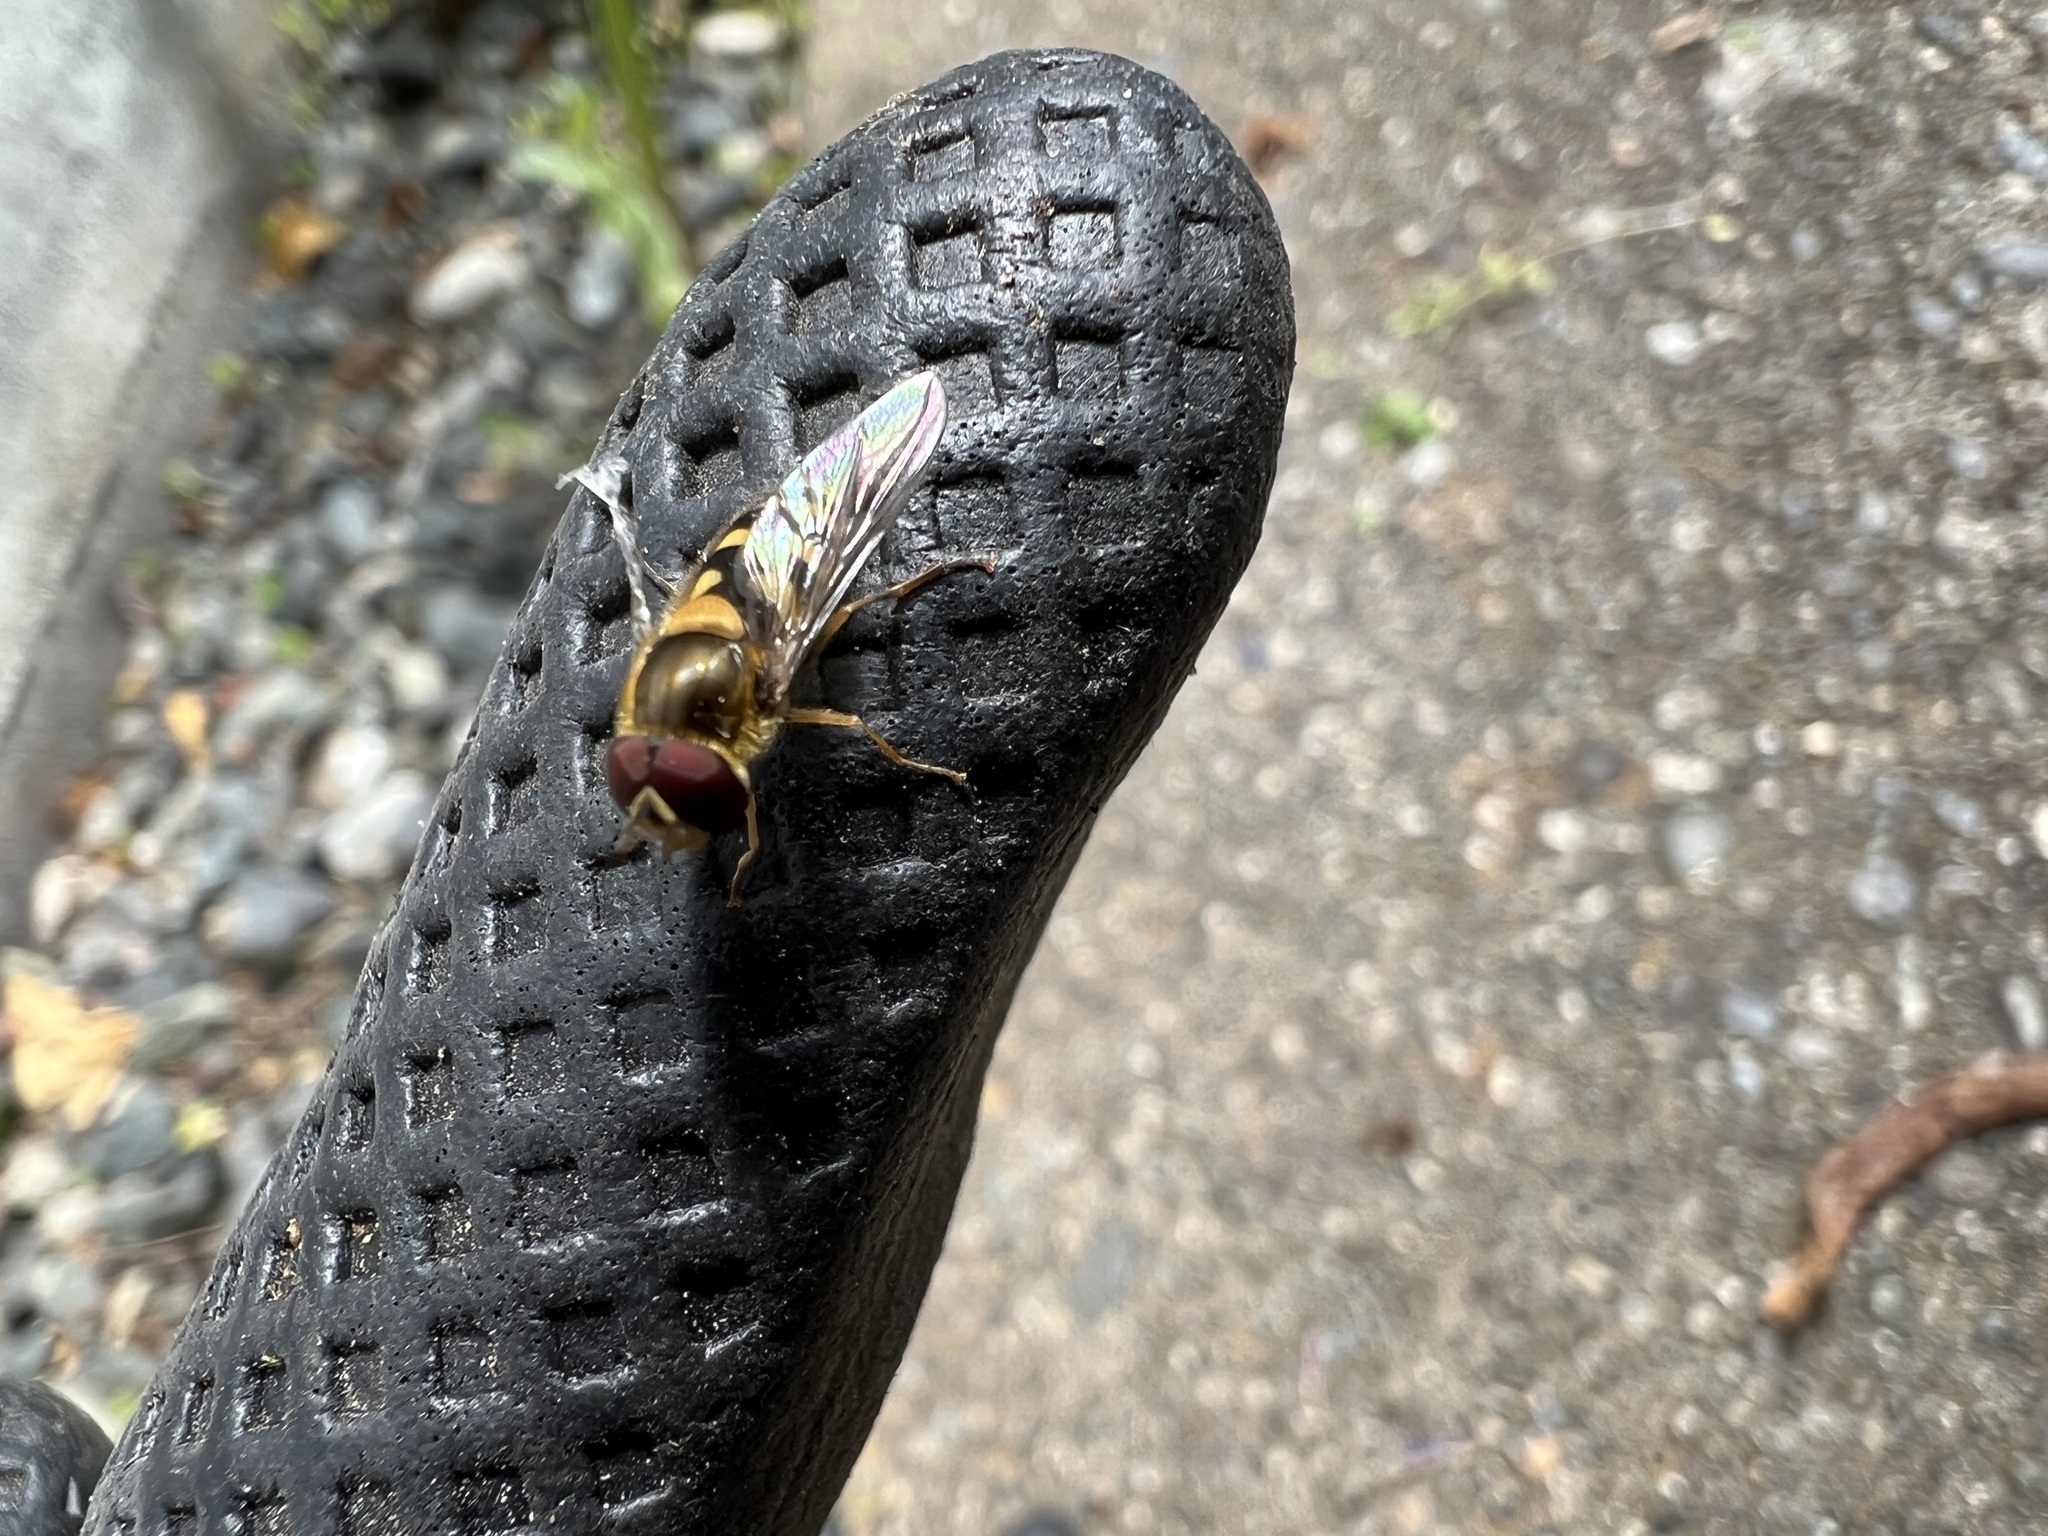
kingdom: Animalia
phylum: Arthropoda
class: Insecta
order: Diptera
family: Syrphidae
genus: Syrphus
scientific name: Syrphus
